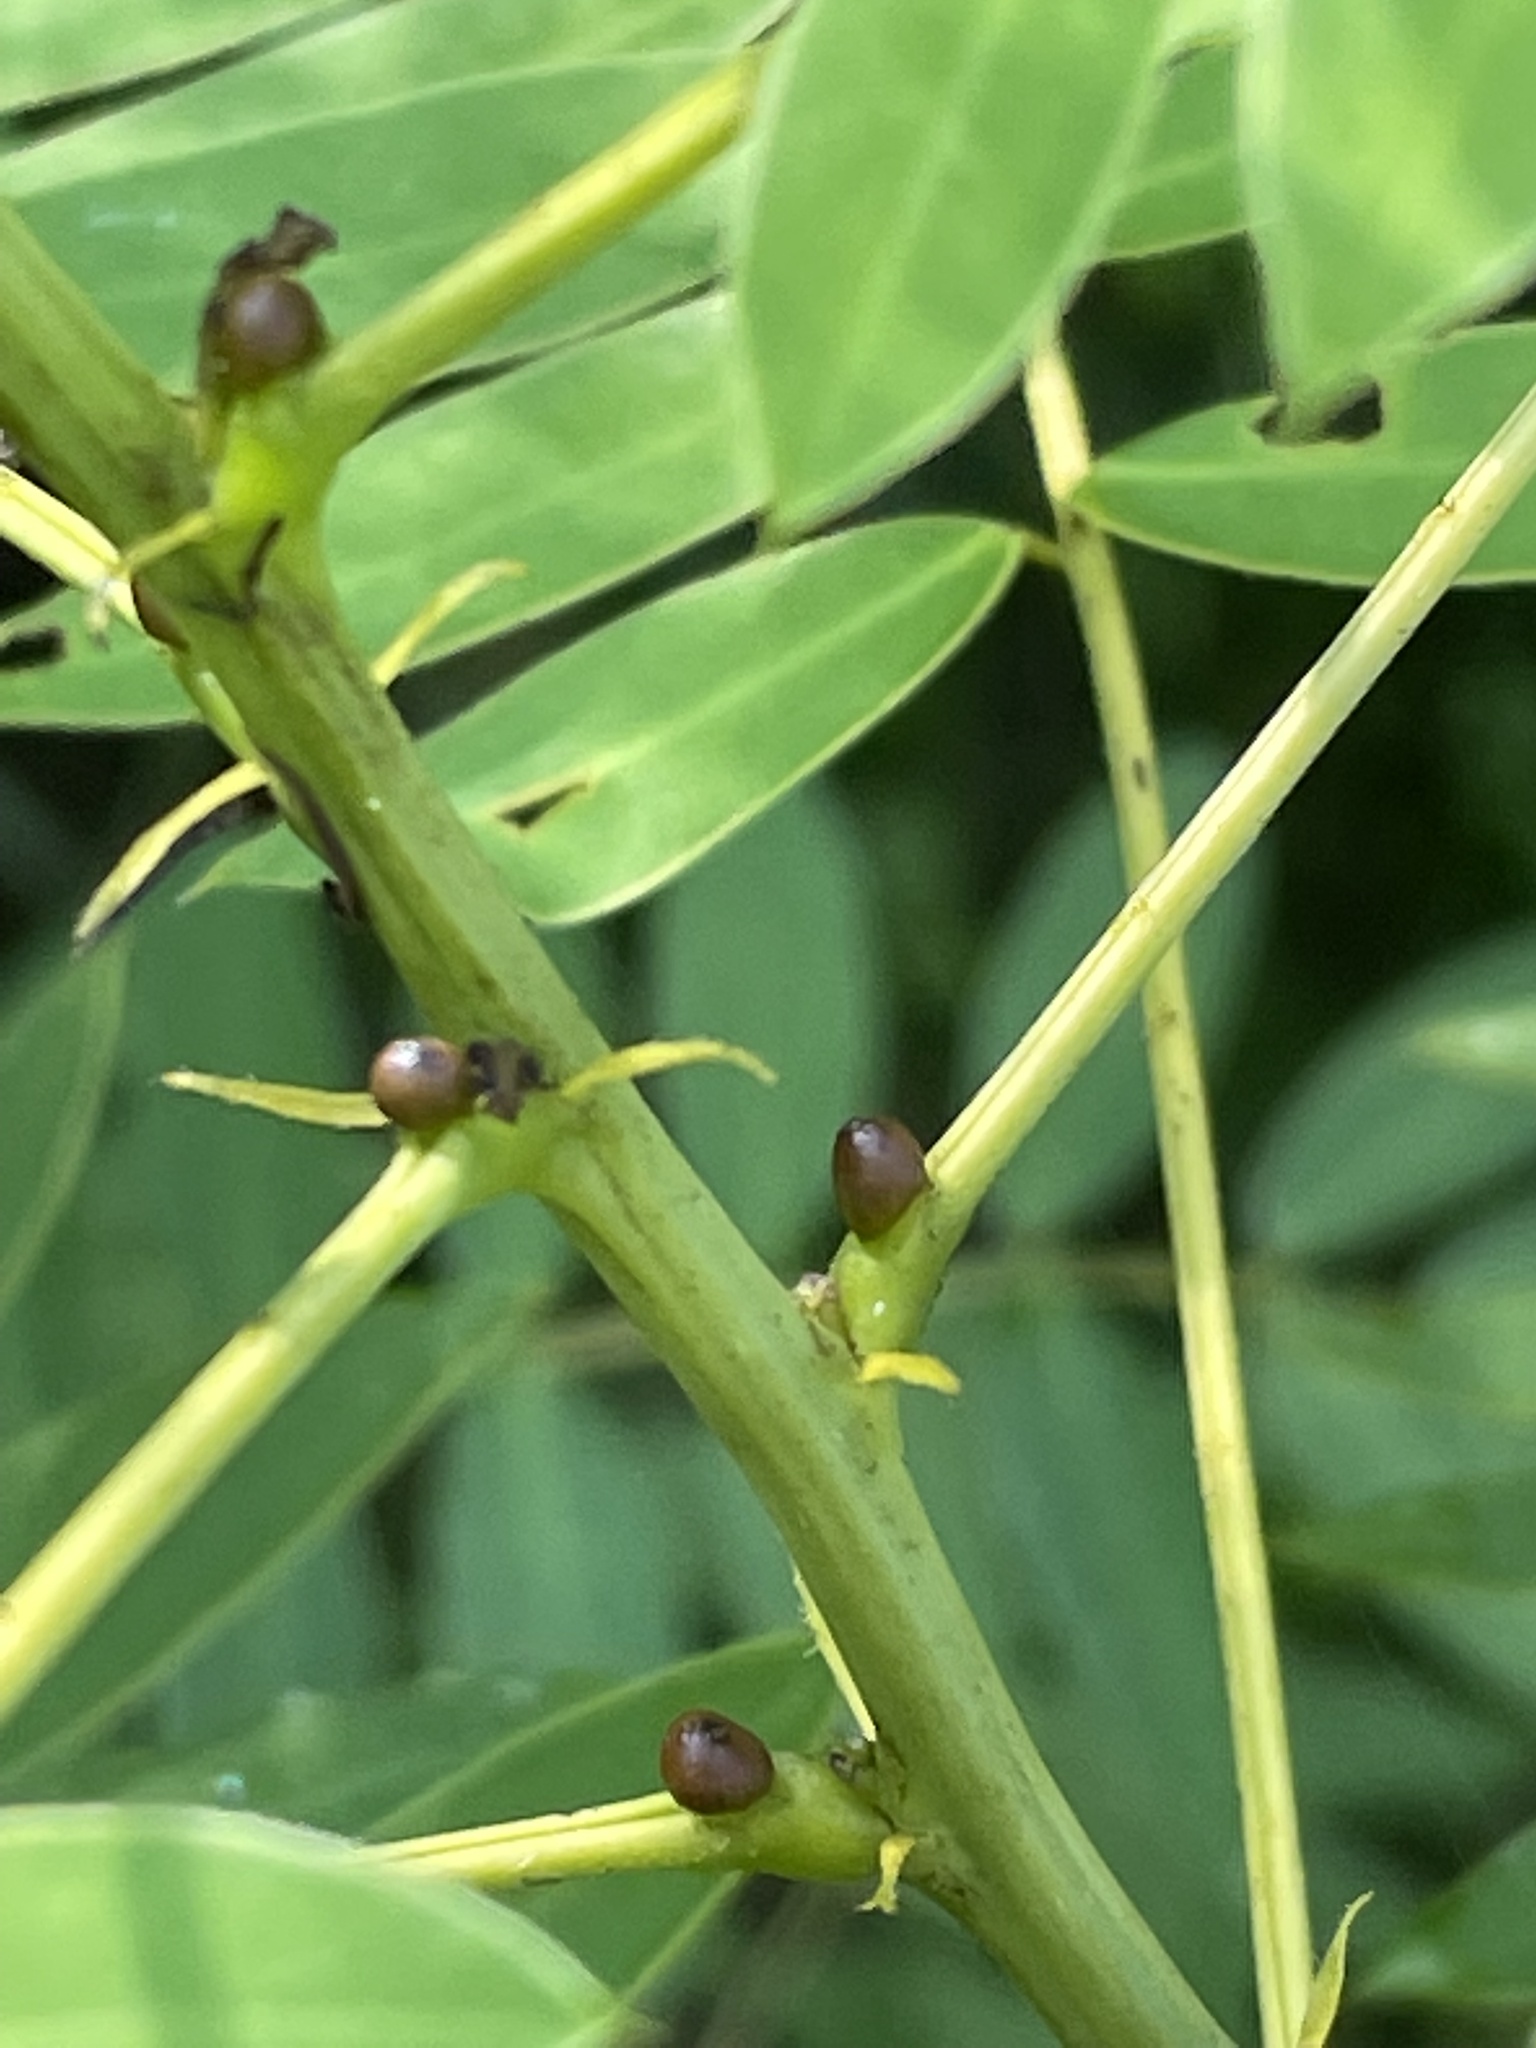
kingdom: Plantae
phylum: Tracheophyta
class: Magnoliopsida
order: Fabales
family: Fabaceae
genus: Senna
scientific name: Senna hebecarpa
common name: Wild senna
